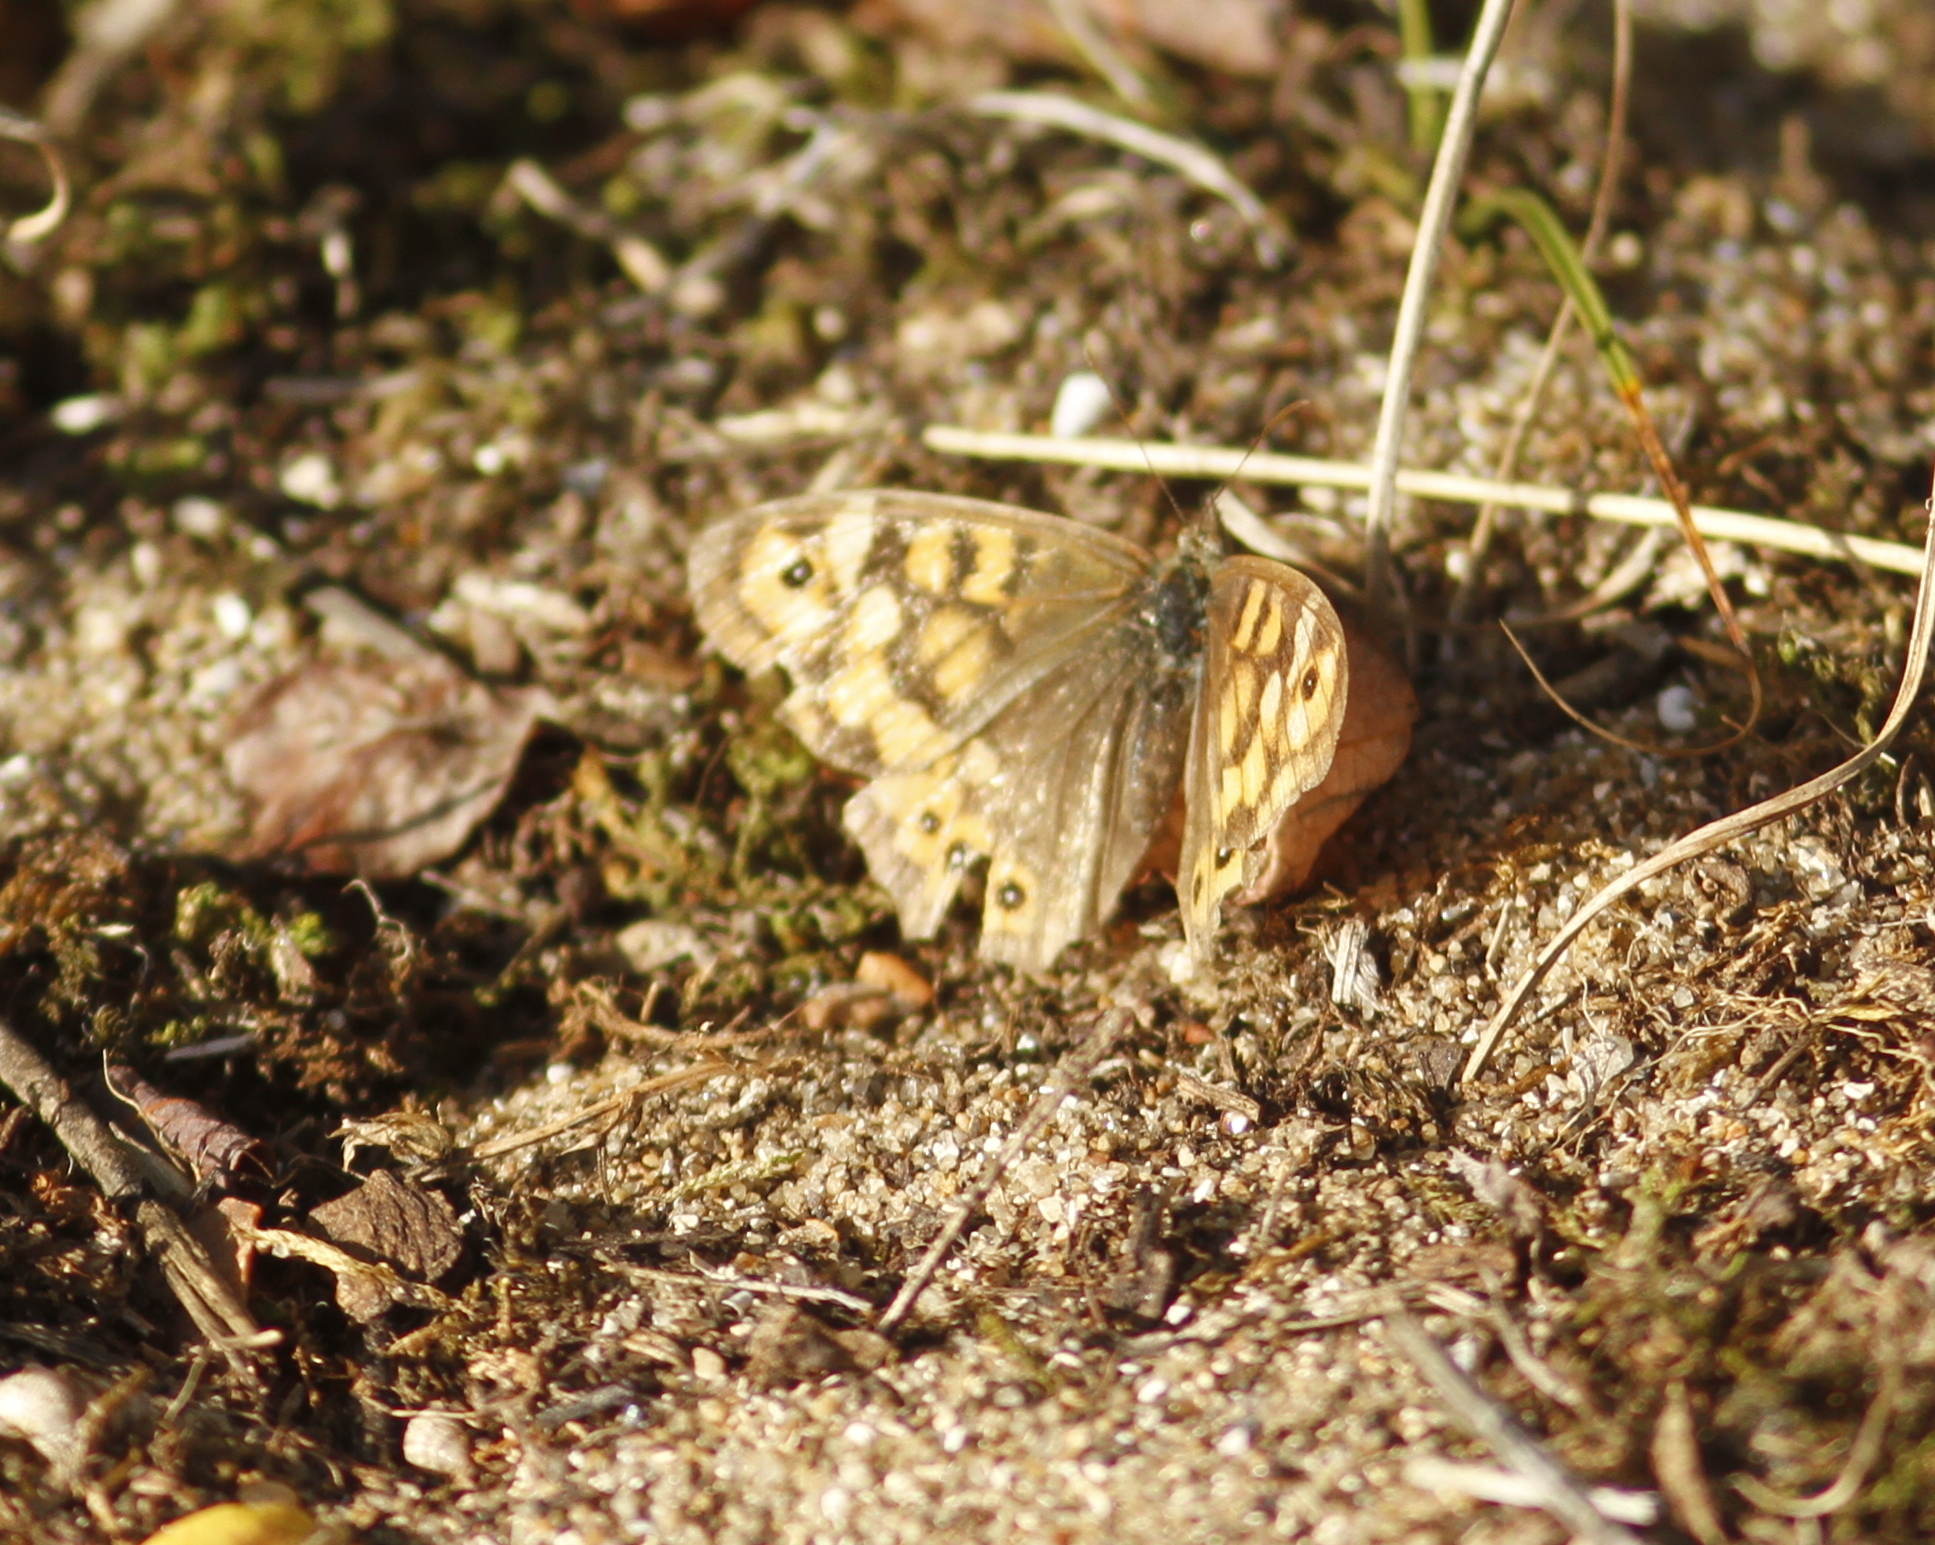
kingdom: Animalia
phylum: Arthropoda
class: Insecta
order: Lepidoptera
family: Nymphalidae
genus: Pararge
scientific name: Pararge aegeria
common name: Speckled wood
